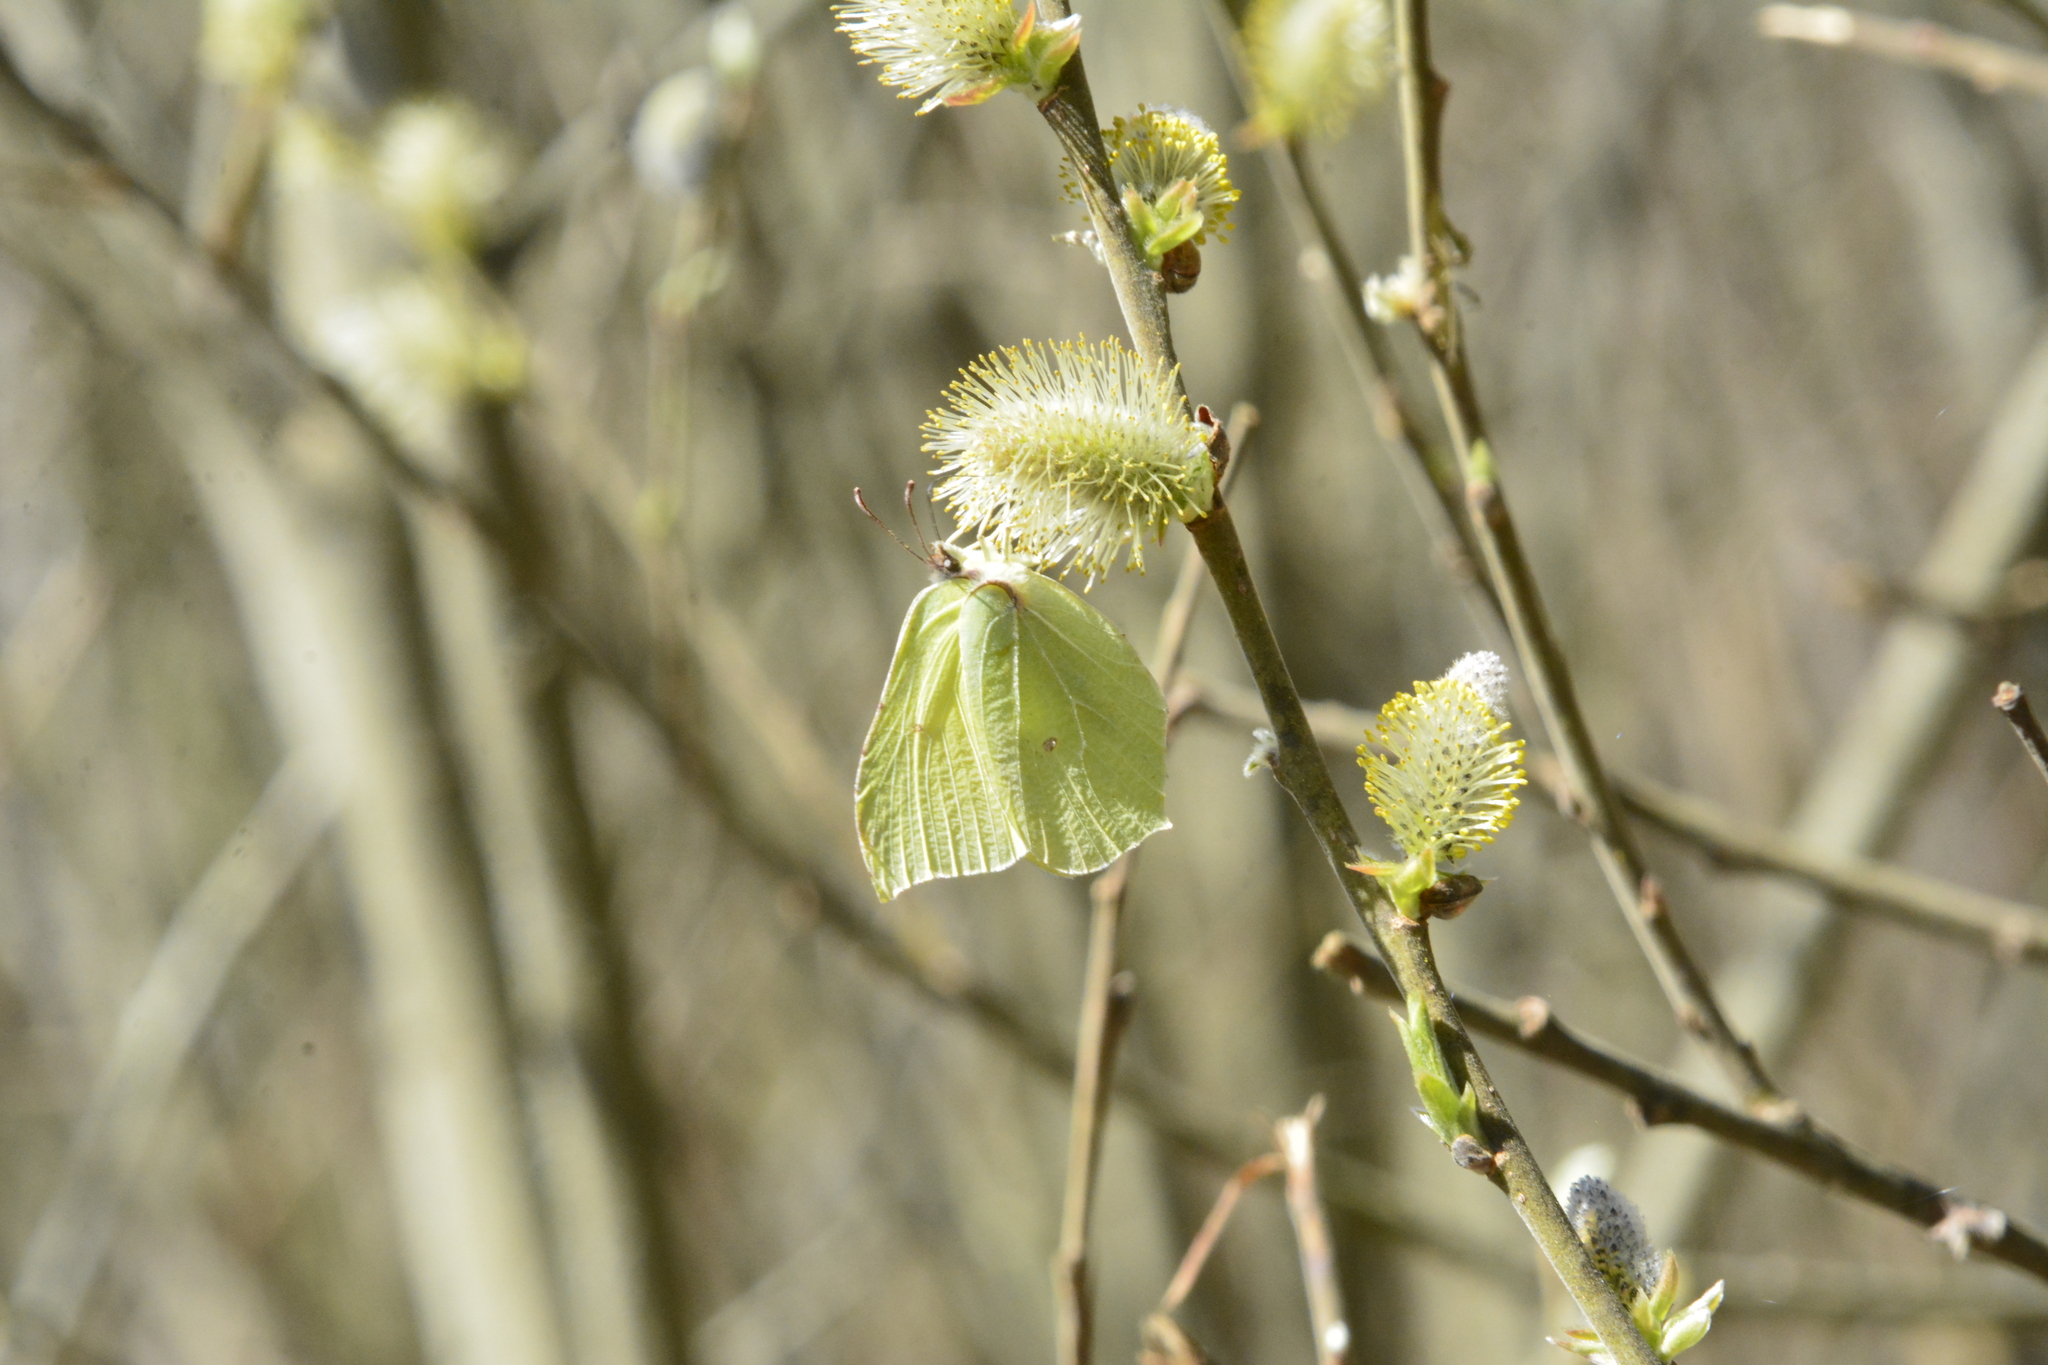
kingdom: Animalia
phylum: Arthropoda
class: Insecta
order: Lepidoptera
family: Pieridae
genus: Gonepteryx
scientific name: Gonepteryx rhamni
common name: Brimstone
